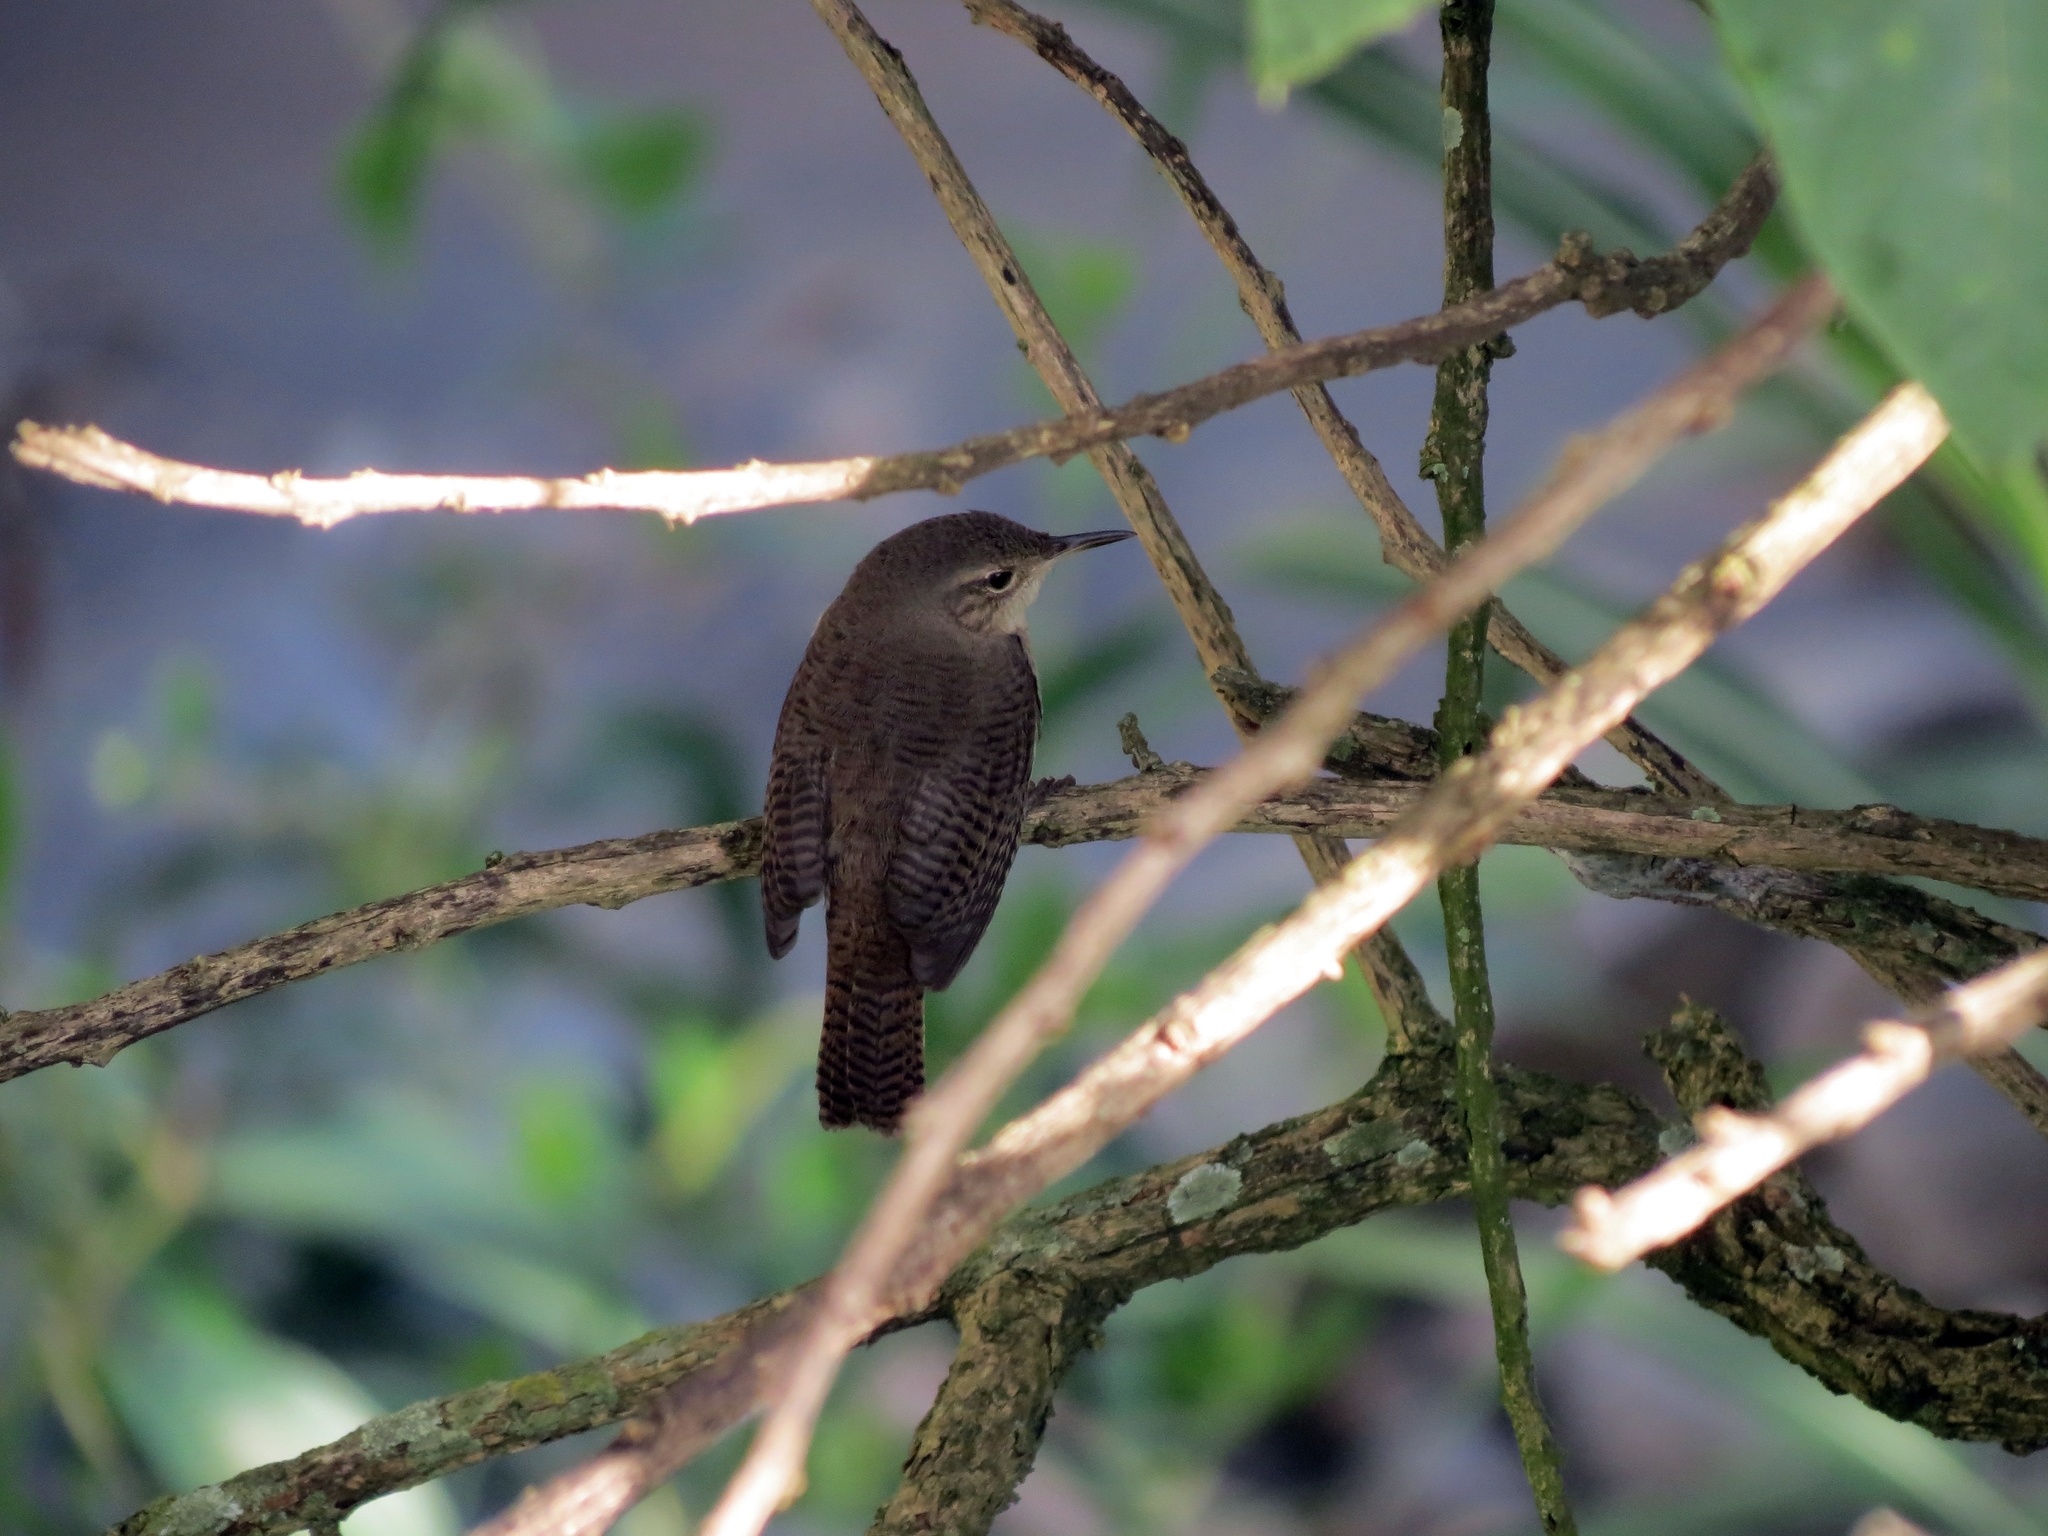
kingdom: Animalia
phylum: Chordata
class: Aves
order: Passeriformes
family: Troglodytidae
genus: Troglodytes
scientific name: Troglodytes aedon
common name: House wren
